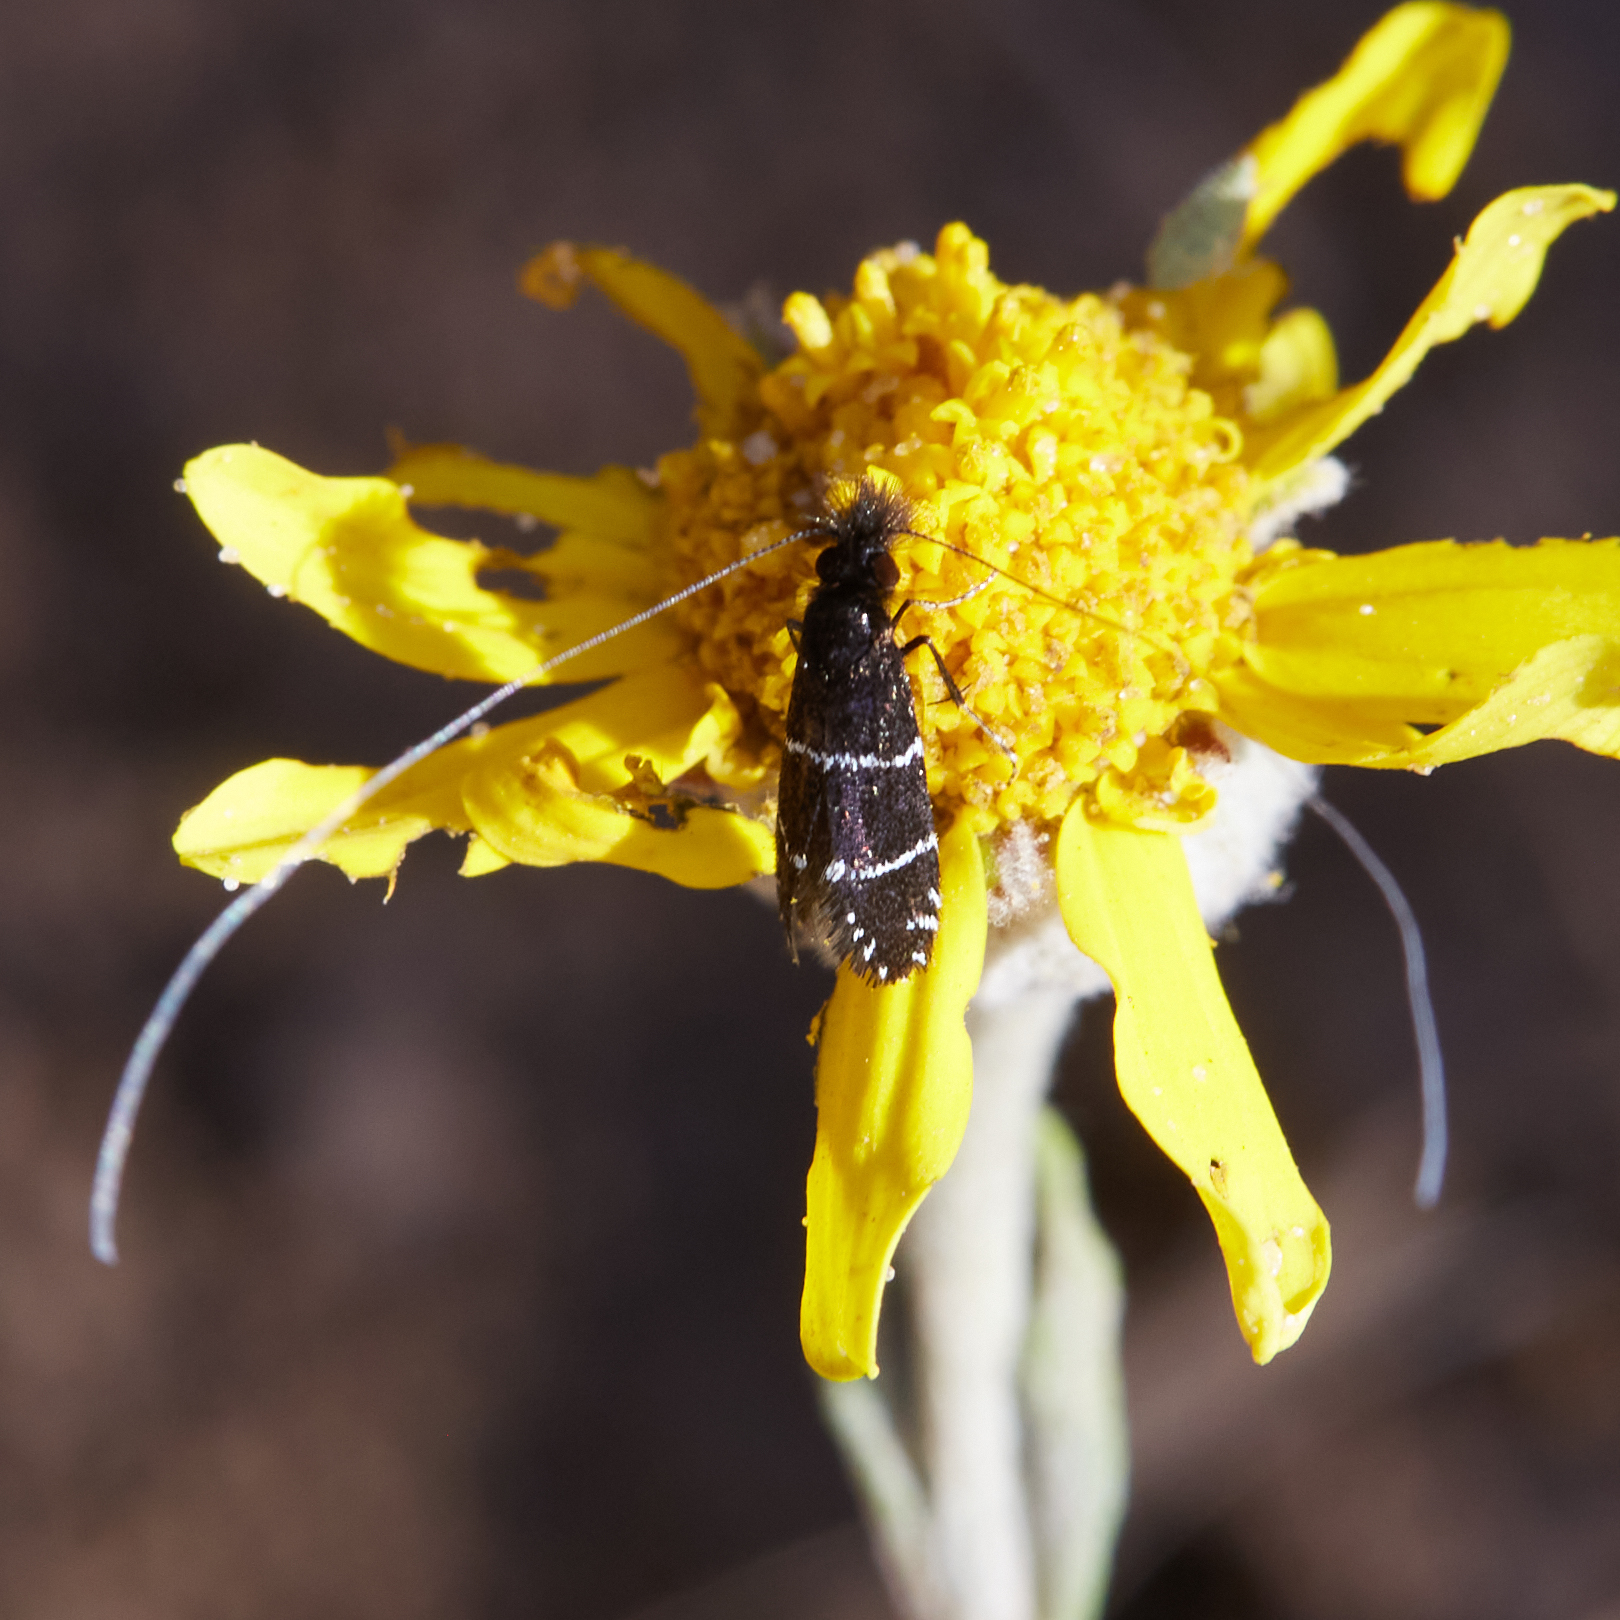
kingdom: Animalia
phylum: Arthropoda
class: Insecta
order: Lepidoptera
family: Adelidae
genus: Adela
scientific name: Adela septentrionella
